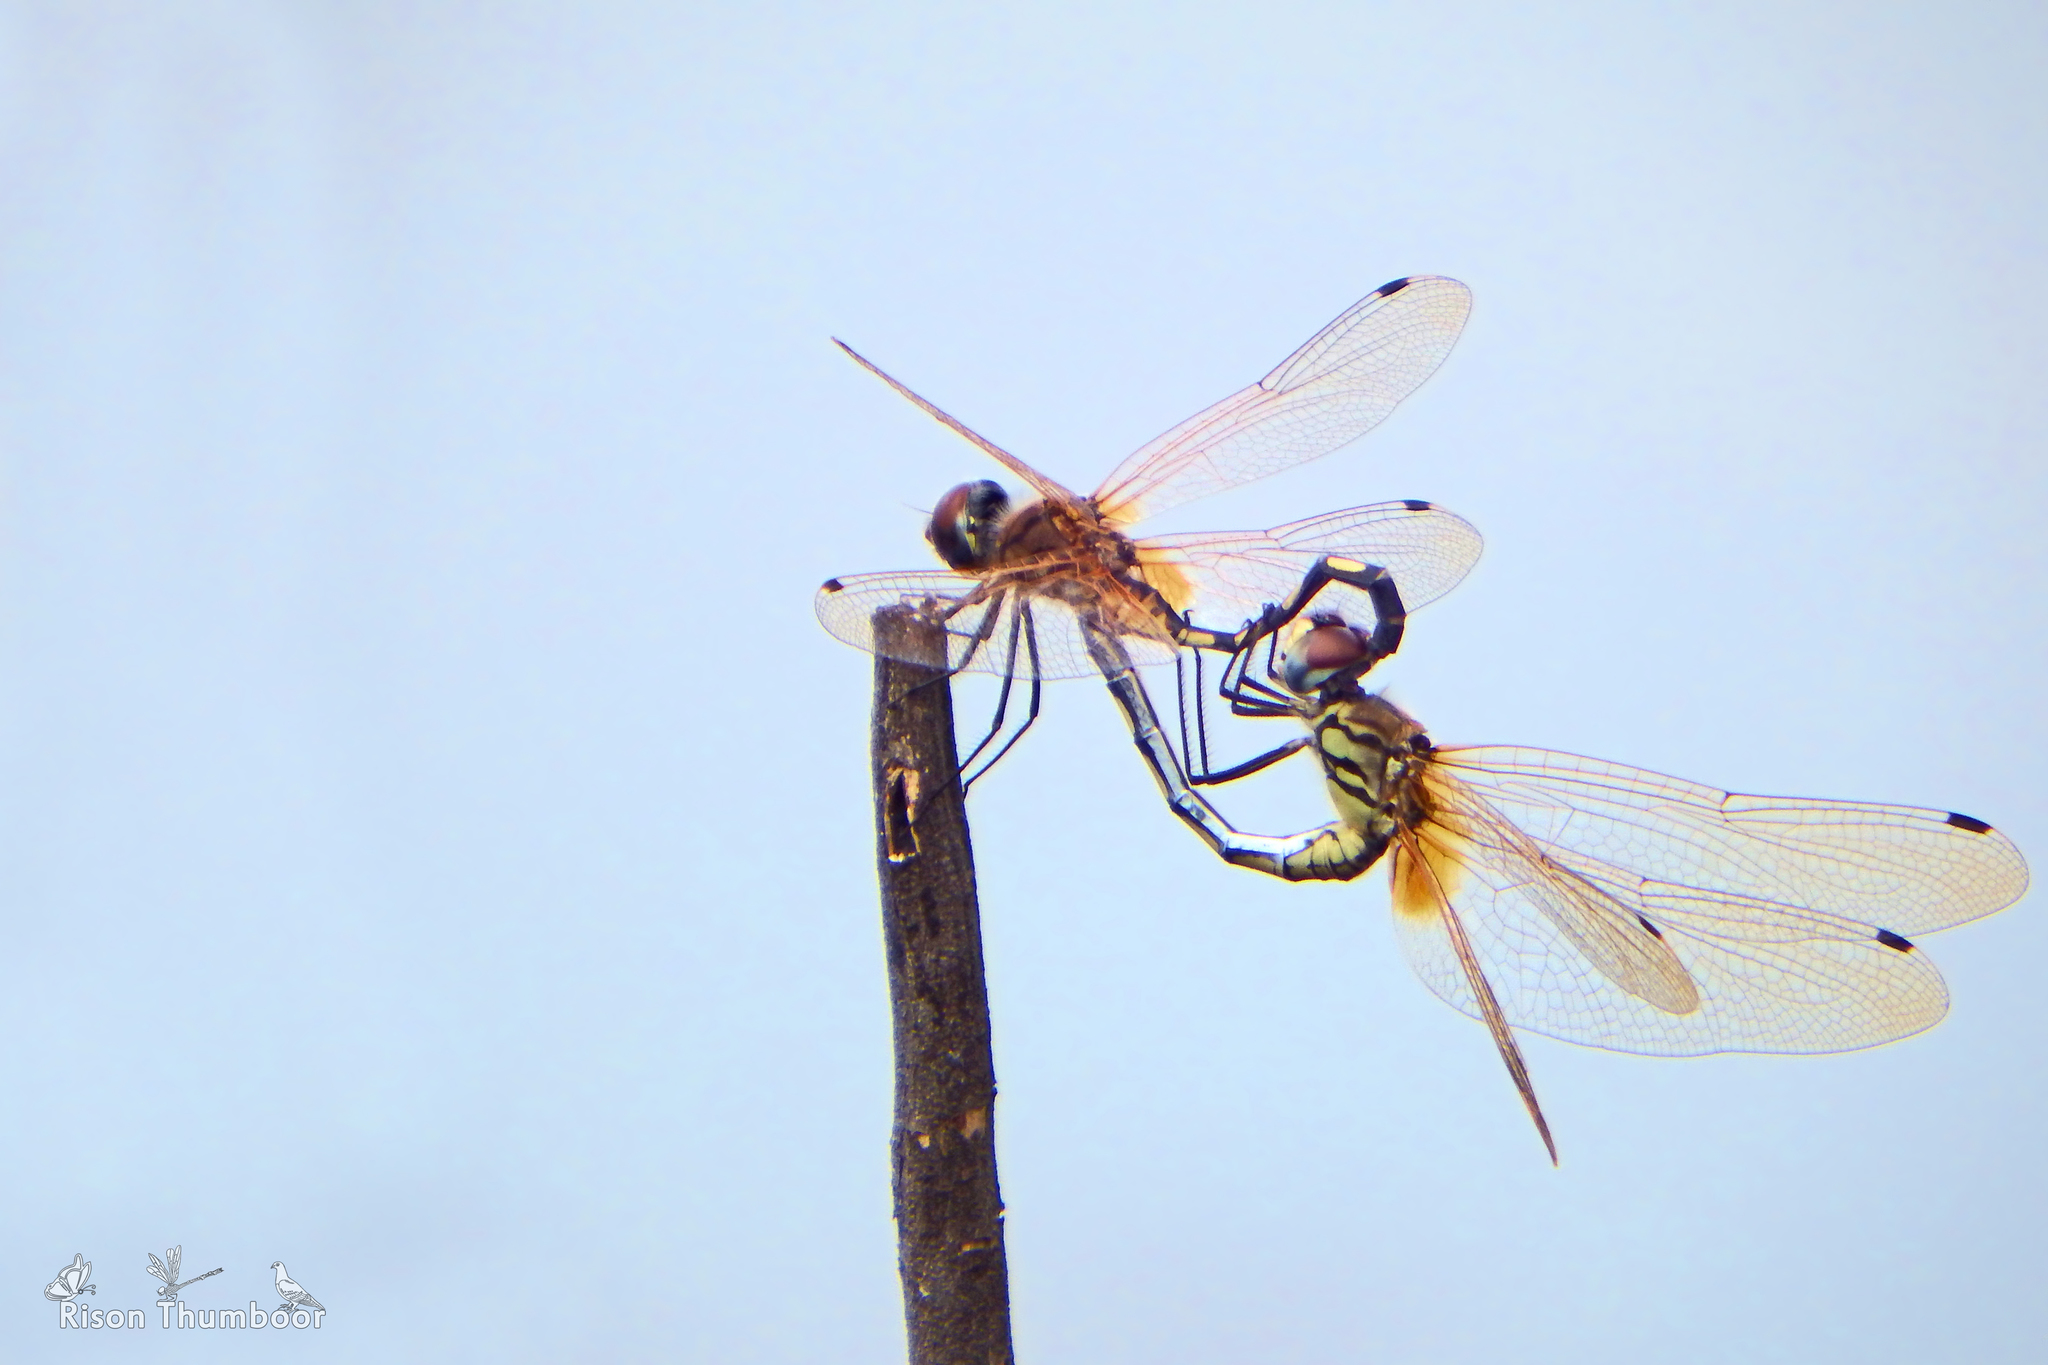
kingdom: Animalia
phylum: Arthropoda
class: Insecta
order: Odonata
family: Libellulidae
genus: Trithemis
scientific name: Trithemis pallidinervis
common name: Dancing dropwing
